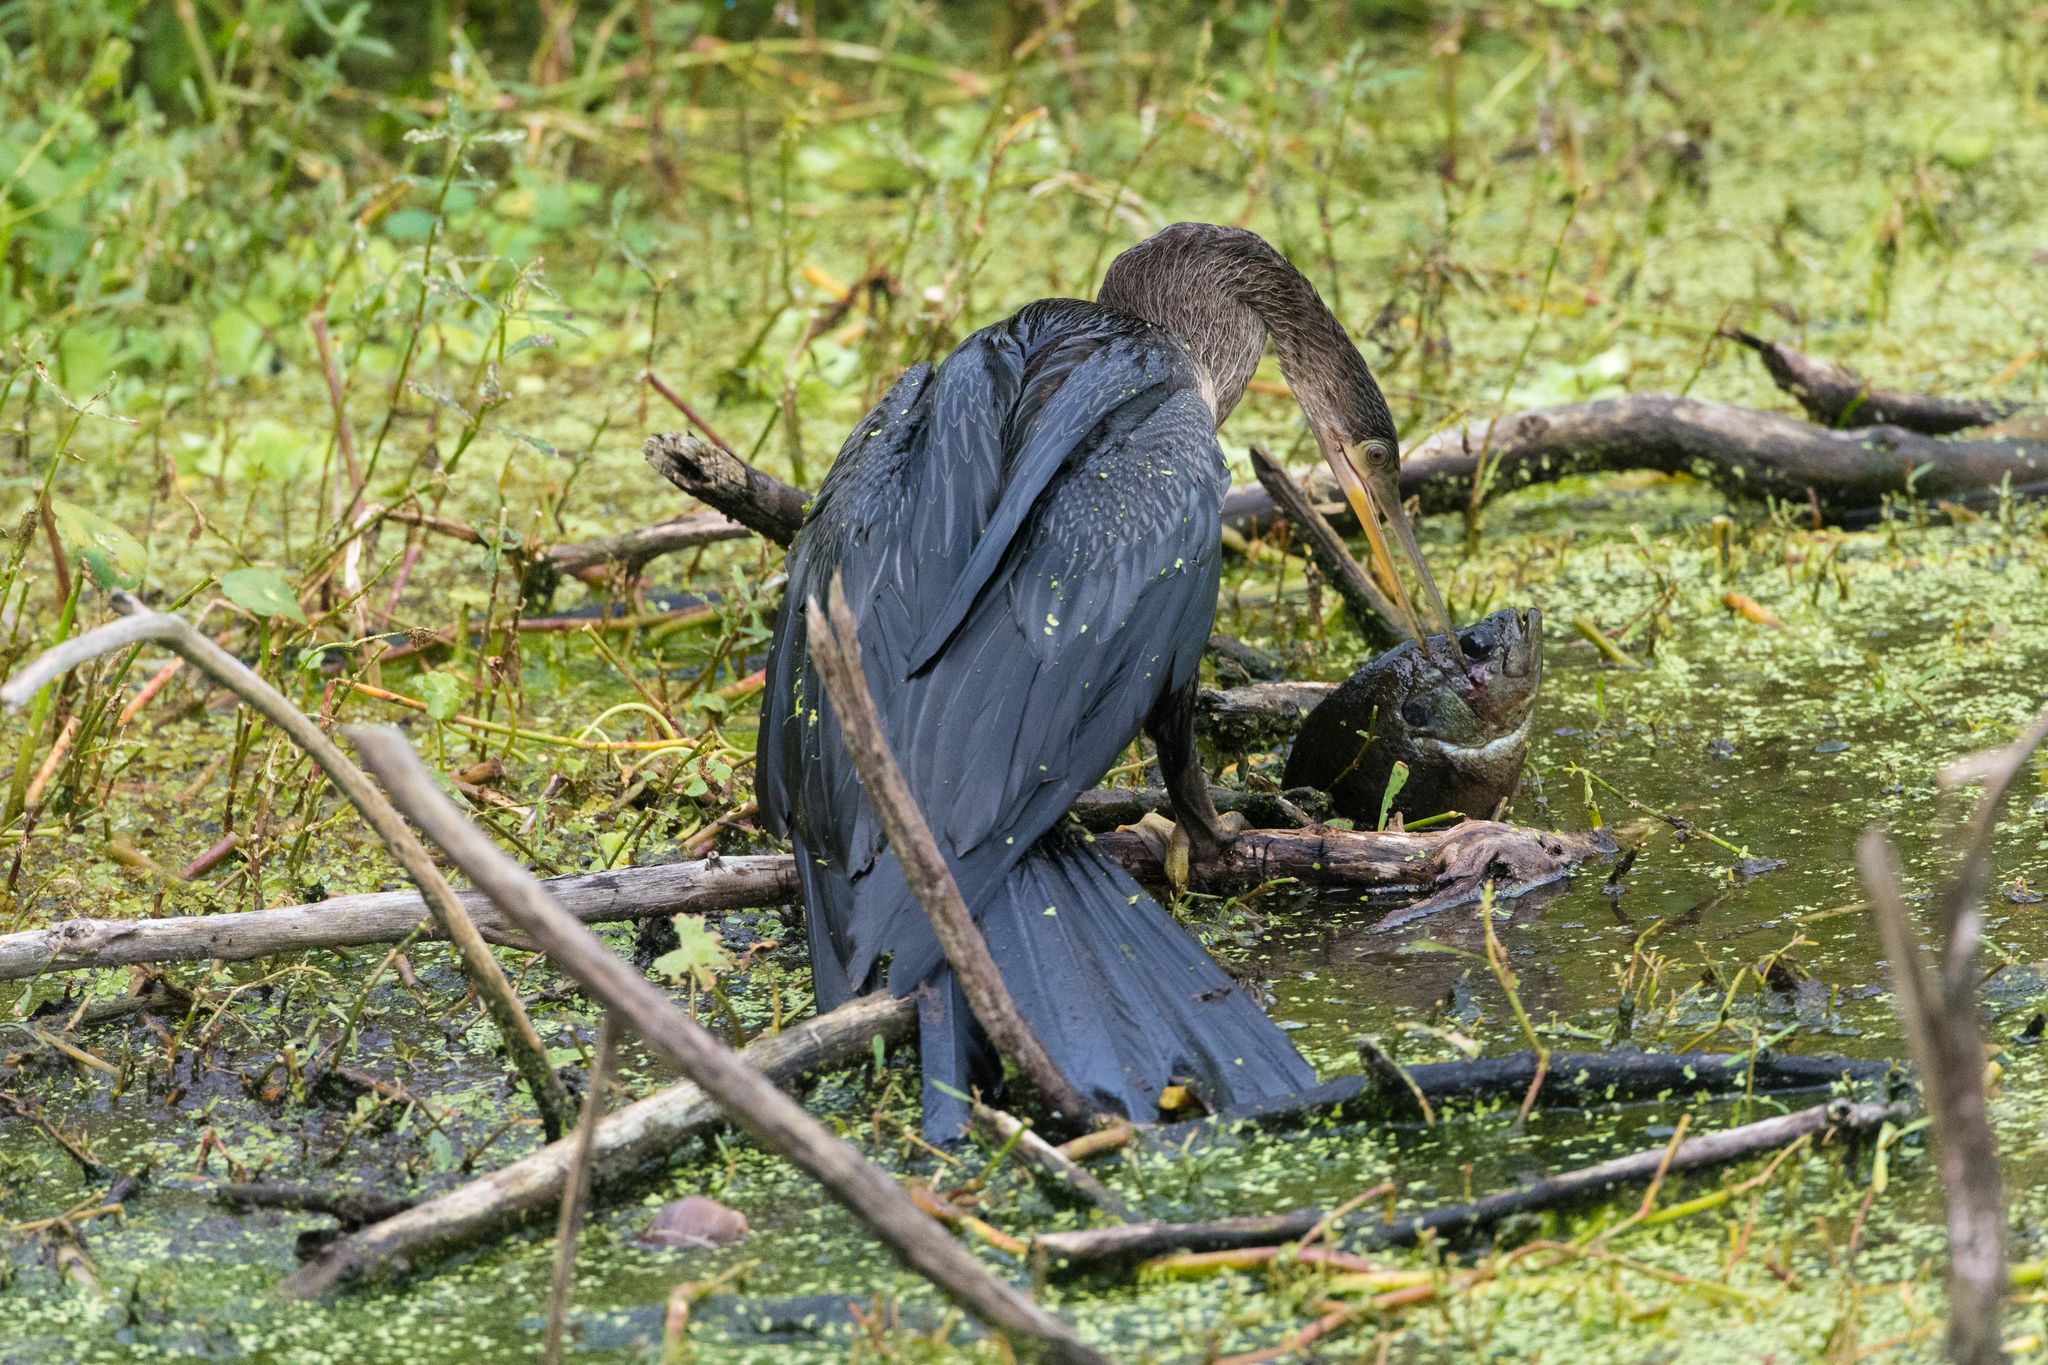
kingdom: Animalia
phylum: Chordata
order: Perciformes
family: Centrarchidae
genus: Lepomis
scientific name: Lepomis gulosus
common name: Warmouth
